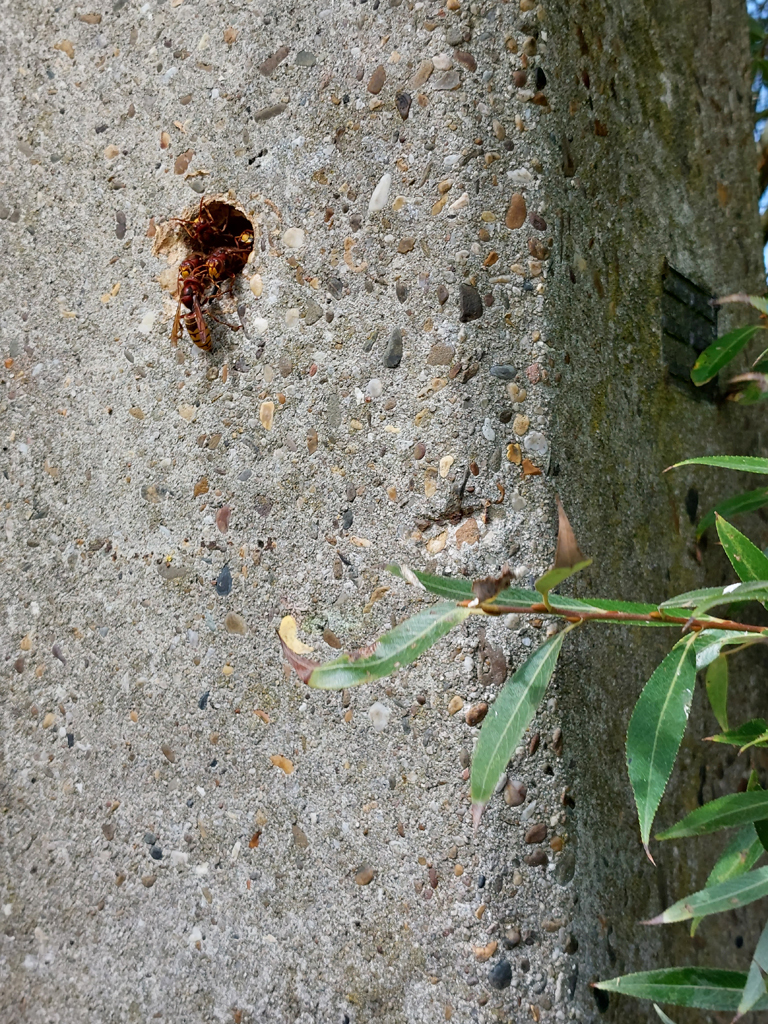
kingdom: Animalia
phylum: Arthropoda
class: Insecta
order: Hymenoptera
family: Vespidae
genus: Vespa
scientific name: Vespa crabro
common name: Hornet
